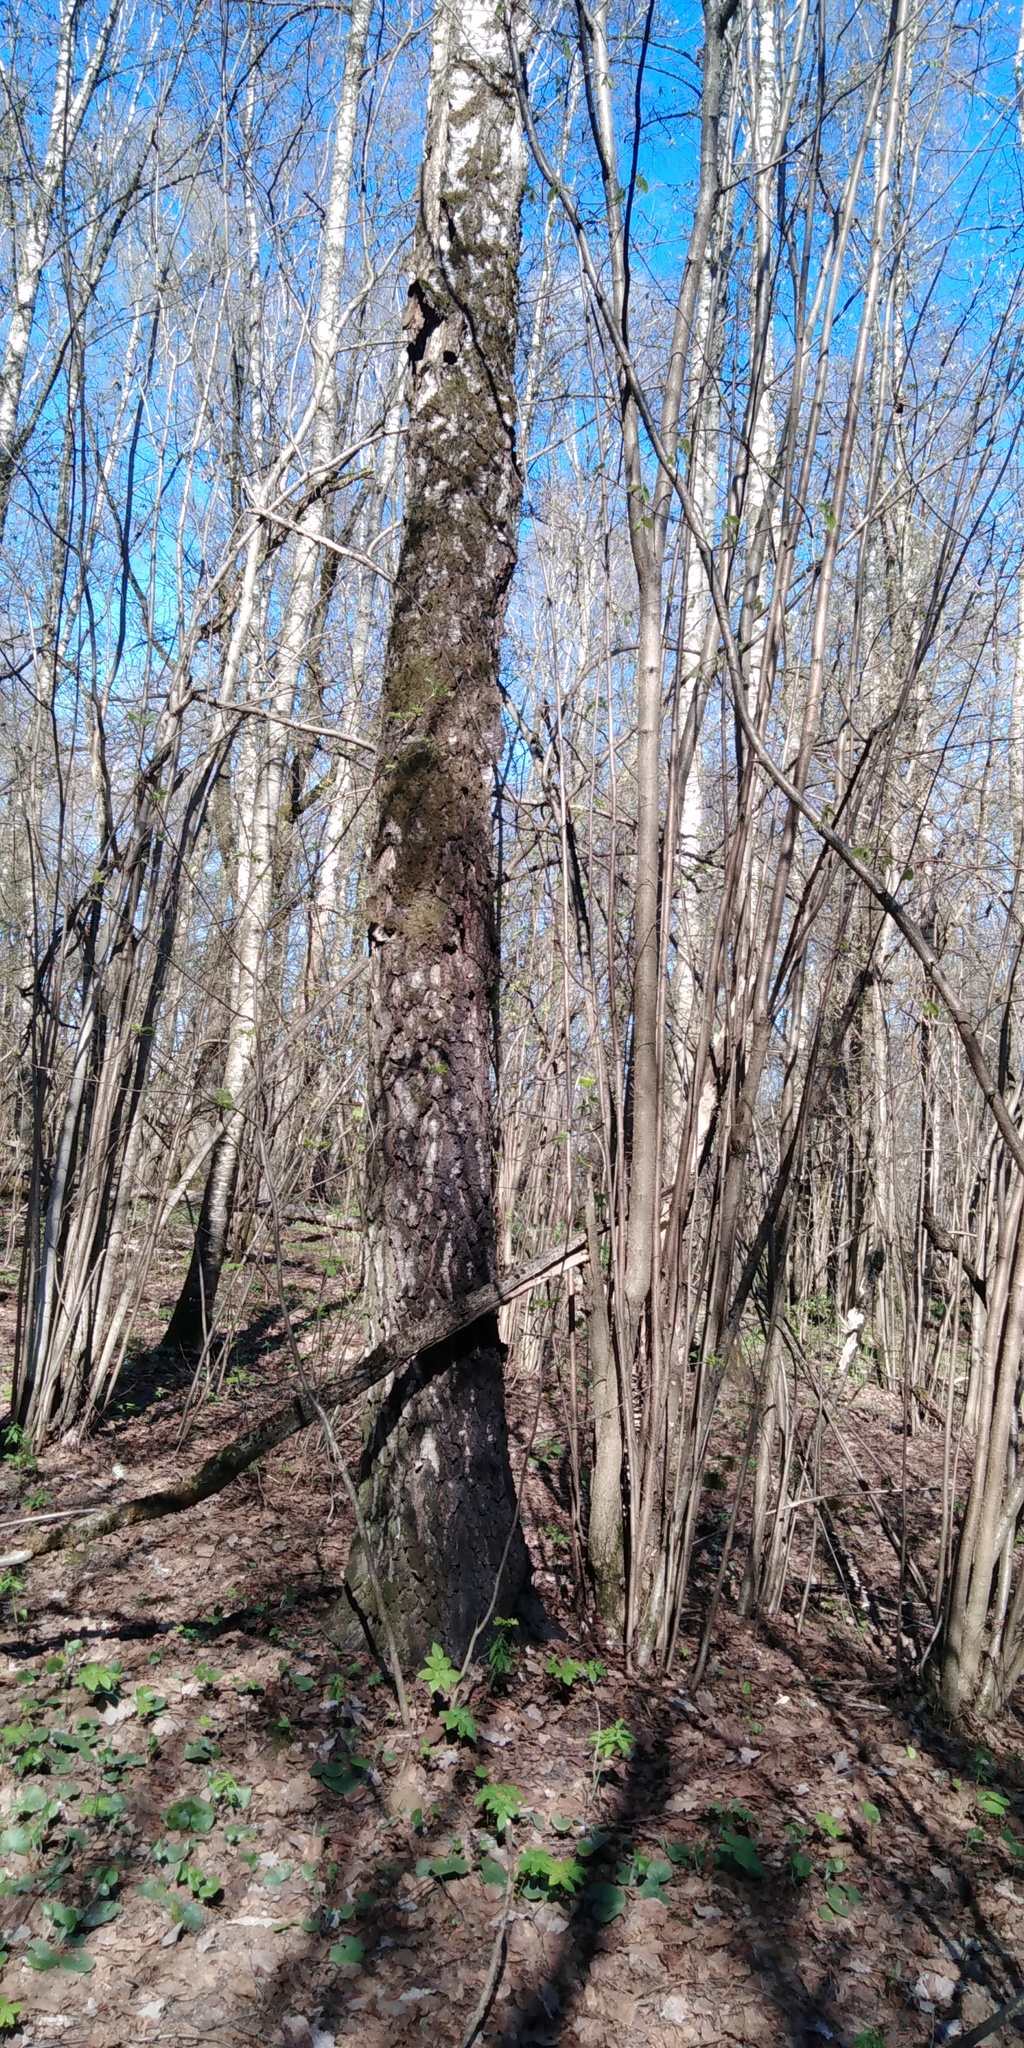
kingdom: Plantae
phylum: Tracheophyta
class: Magnoliopsida
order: Fagales
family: Betulaceae
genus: Betula
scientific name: Betula pendula
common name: Silver birch
